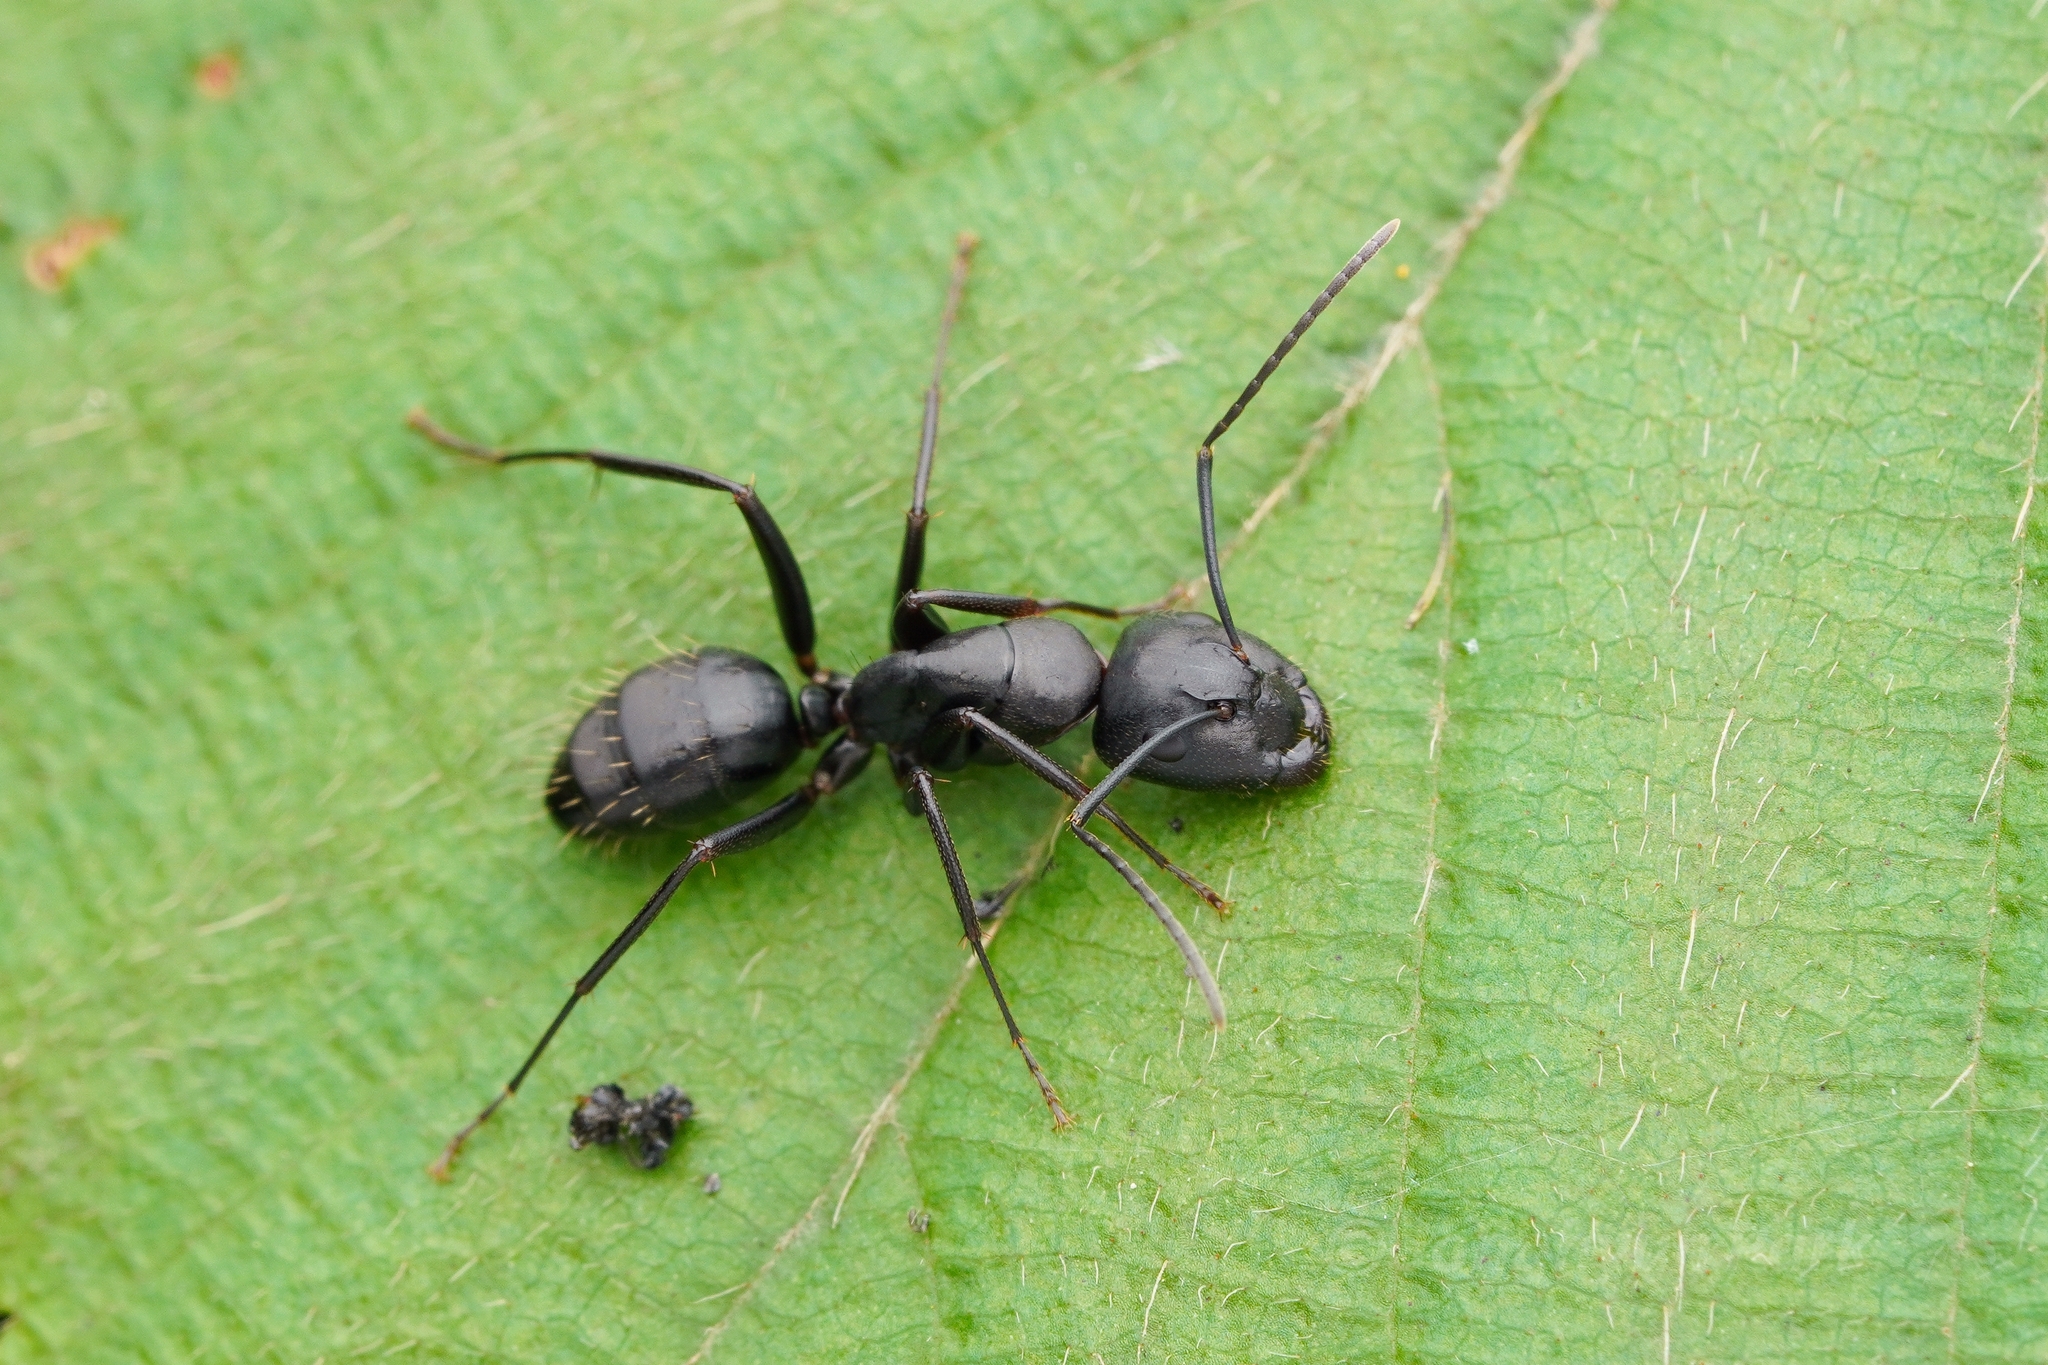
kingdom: Animalia
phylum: Arthropoda
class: Insecta
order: Hymenoptera
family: Formicidae
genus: Camponotus
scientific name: Camponotus concavus
